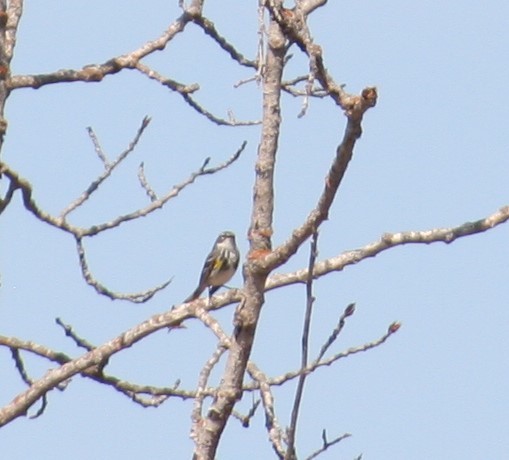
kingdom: Animalia
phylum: Chordata
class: Aves
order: Passeriformes
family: Parulidae
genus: Setophaga
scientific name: Setophaga coronata
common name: Myrtle warbler
